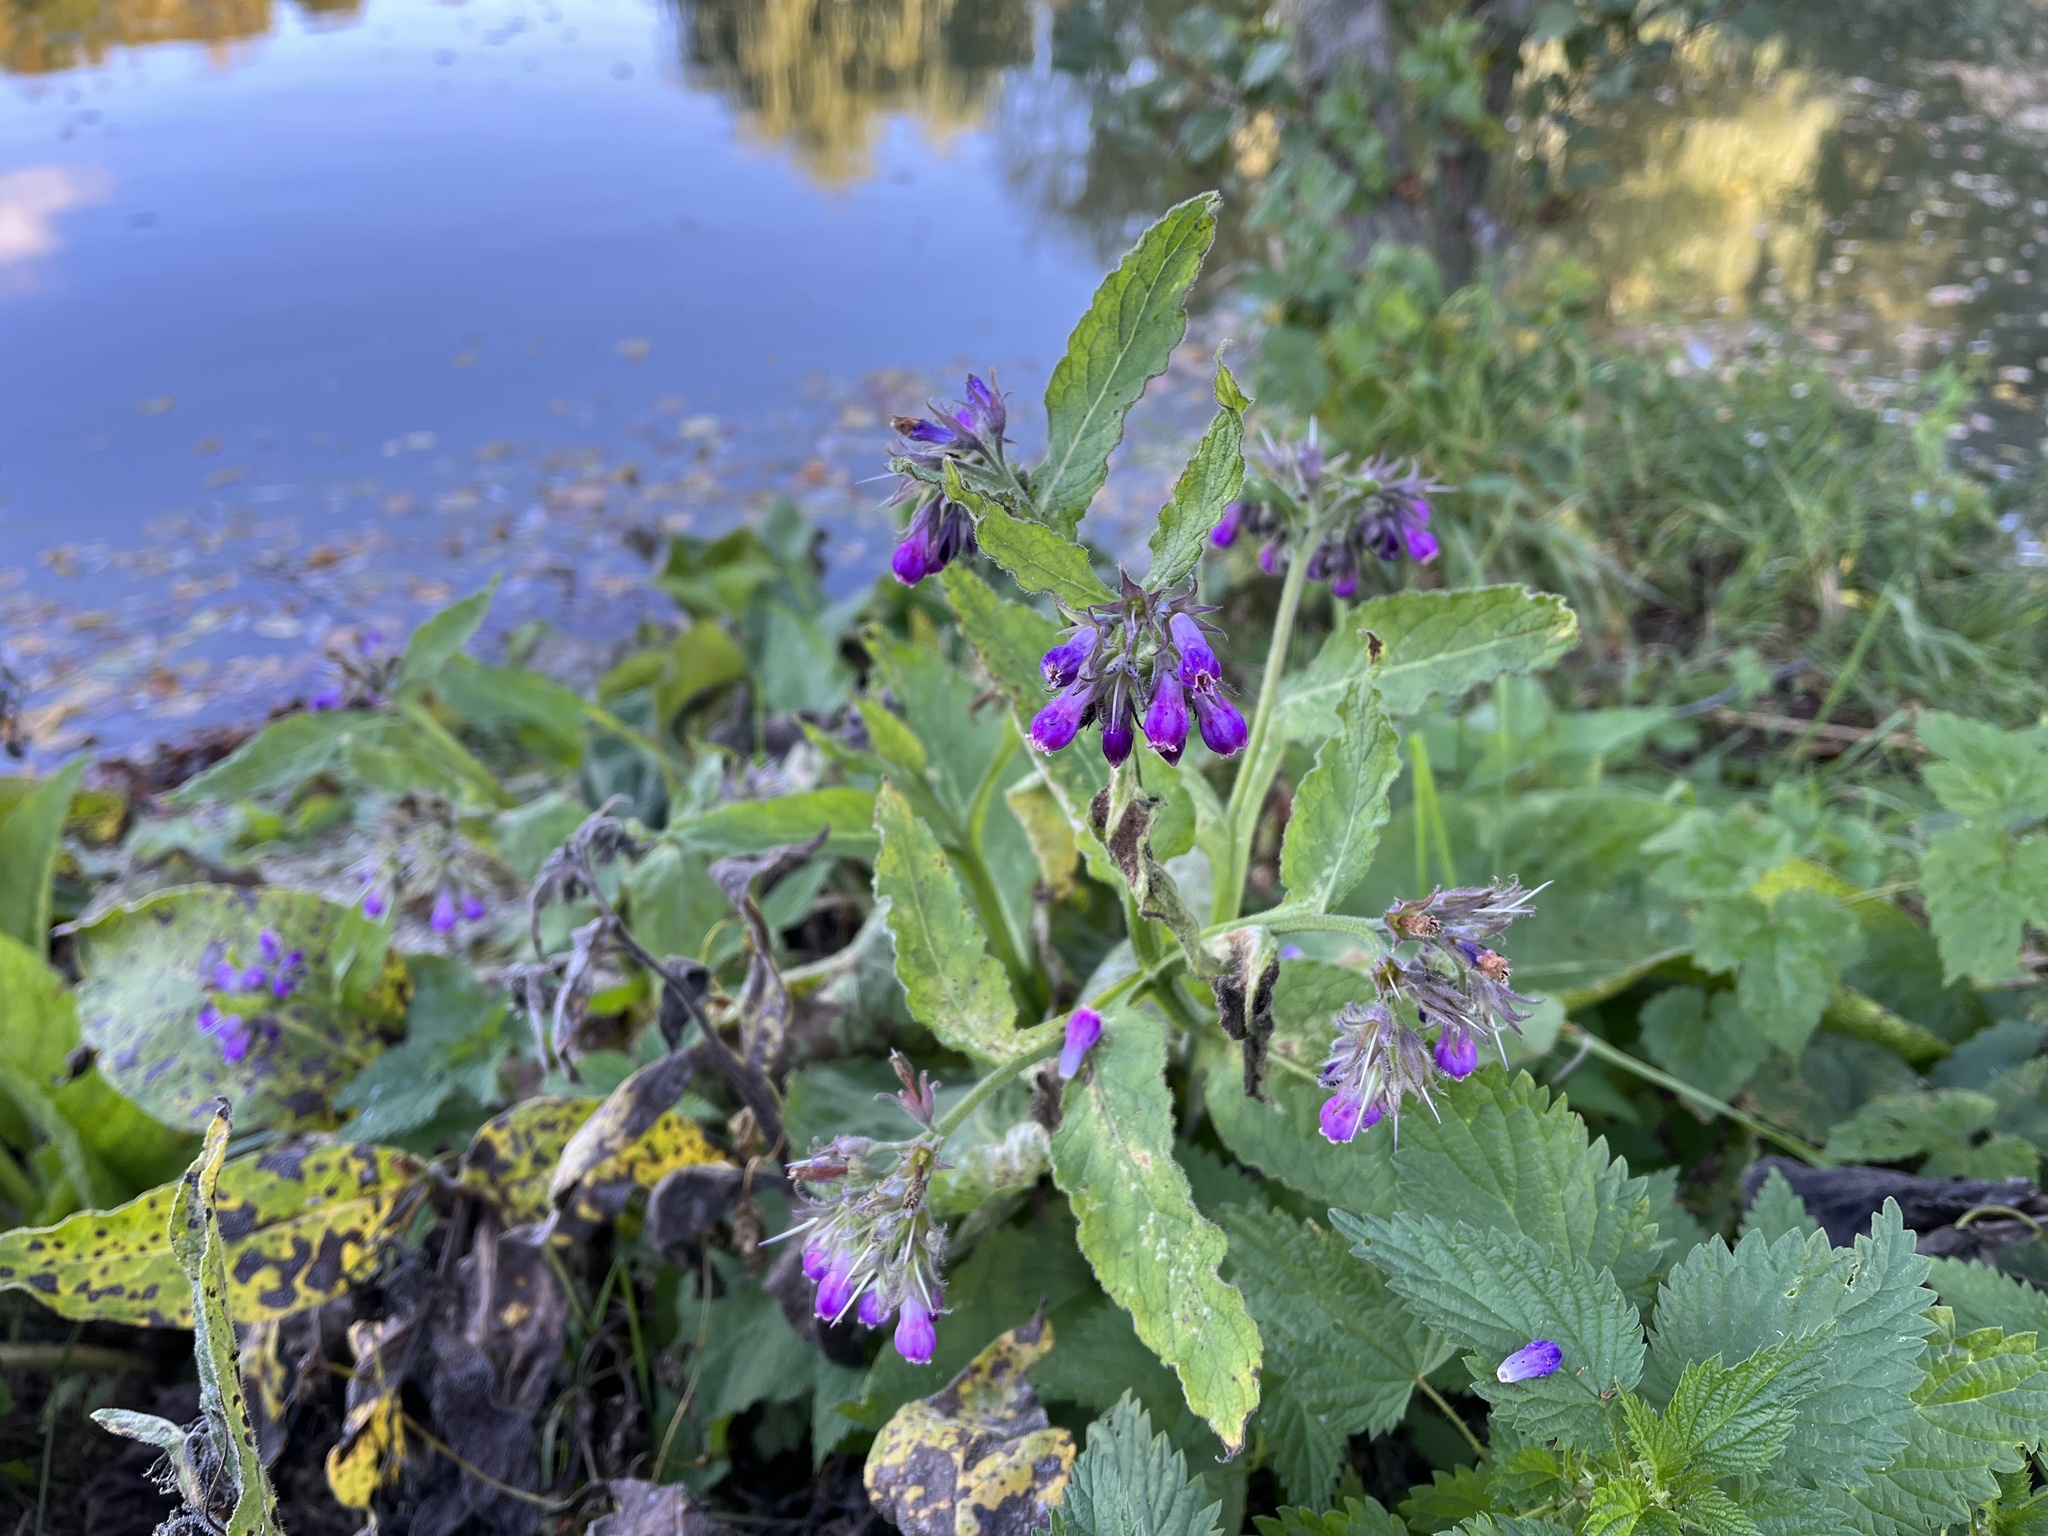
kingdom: Plantae
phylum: Tracheophyta
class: Magnoliopsida
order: Boraginales
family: Boraginaceae
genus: Symphytum
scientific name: Symphytum officinale
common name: Common comfrey
